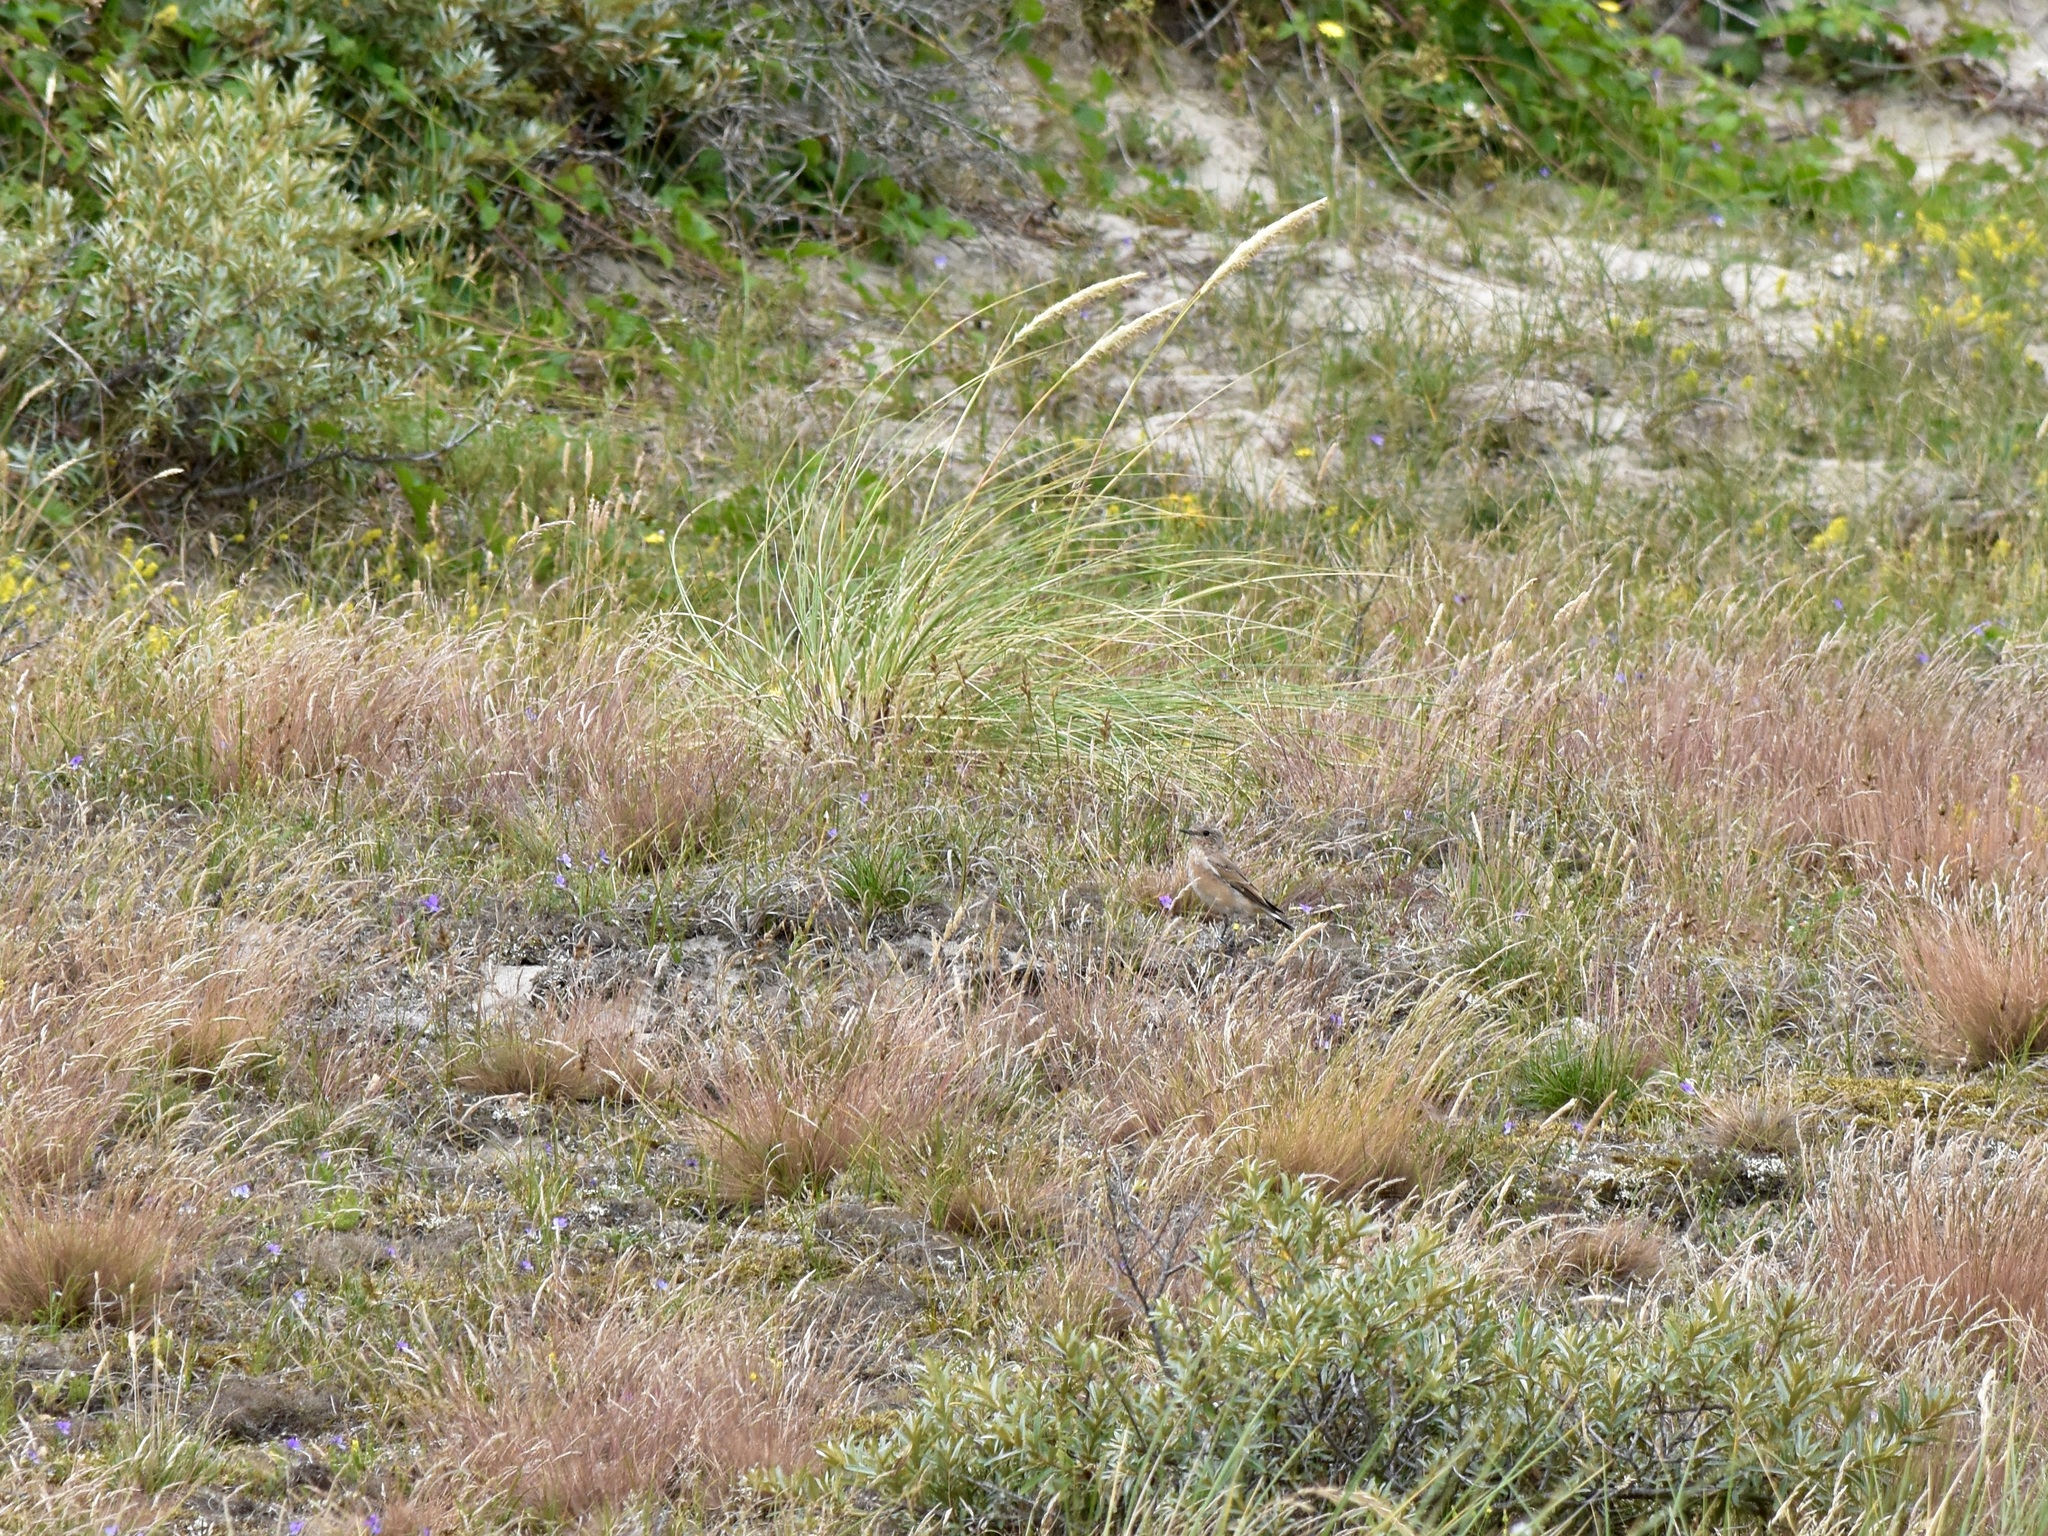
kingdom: Animalia
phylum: Chordata
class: Aves
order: Passeriformes
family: Muscicapidae
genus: Oenanthe
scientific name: Oenanthe oenanthe
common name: Northern wheatear
